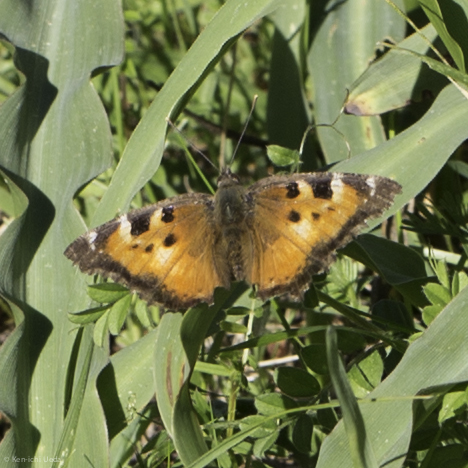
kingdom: Animalia
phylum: Arthropoda
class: Insecta
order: Lepidoptera
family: Nymphalidae
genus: Nymphalis
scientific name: Nymphalis californica
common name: California tortoiseshell
